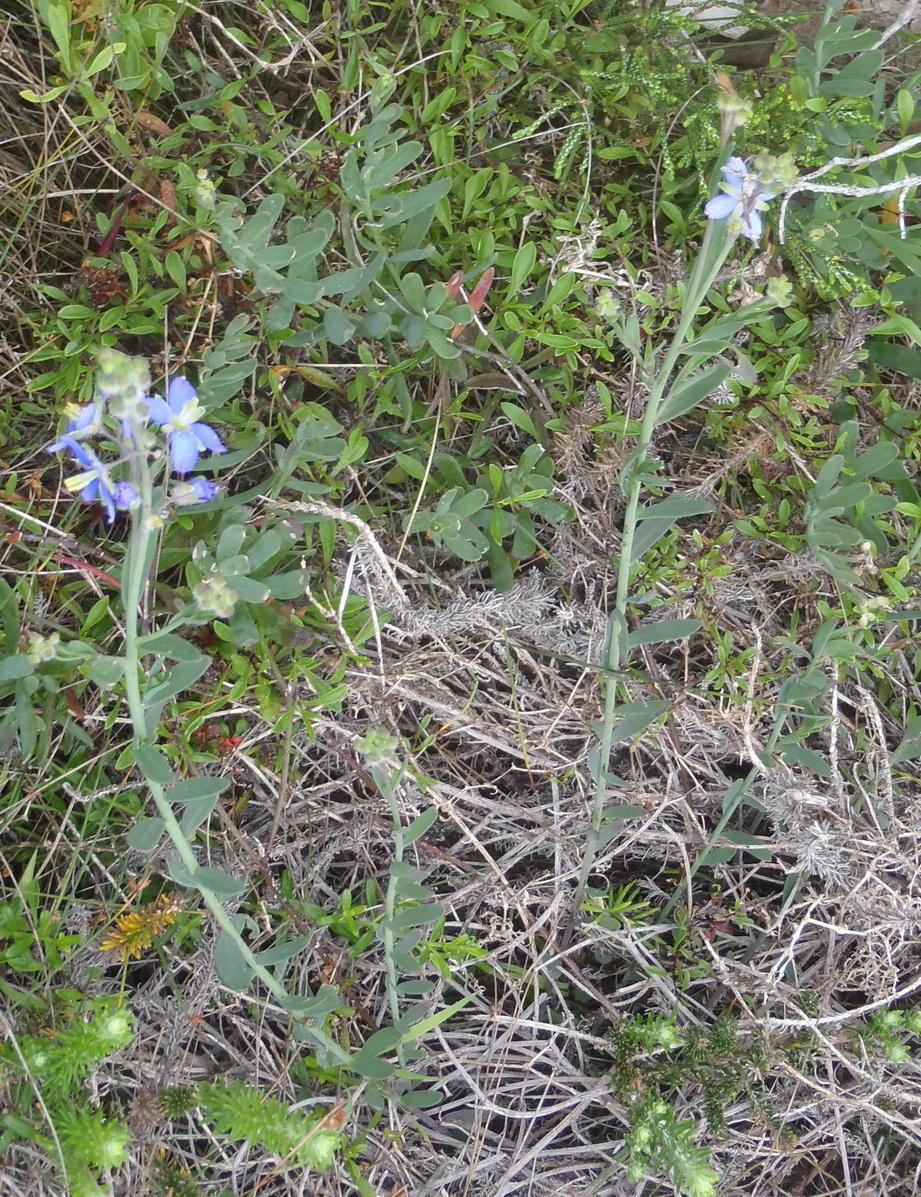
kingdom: Plantae
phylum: Tracheophyta
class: Magnoliopsida
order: Brassicales
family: Brassicaceae
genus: Heliophila
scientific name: Heliophila linearis
